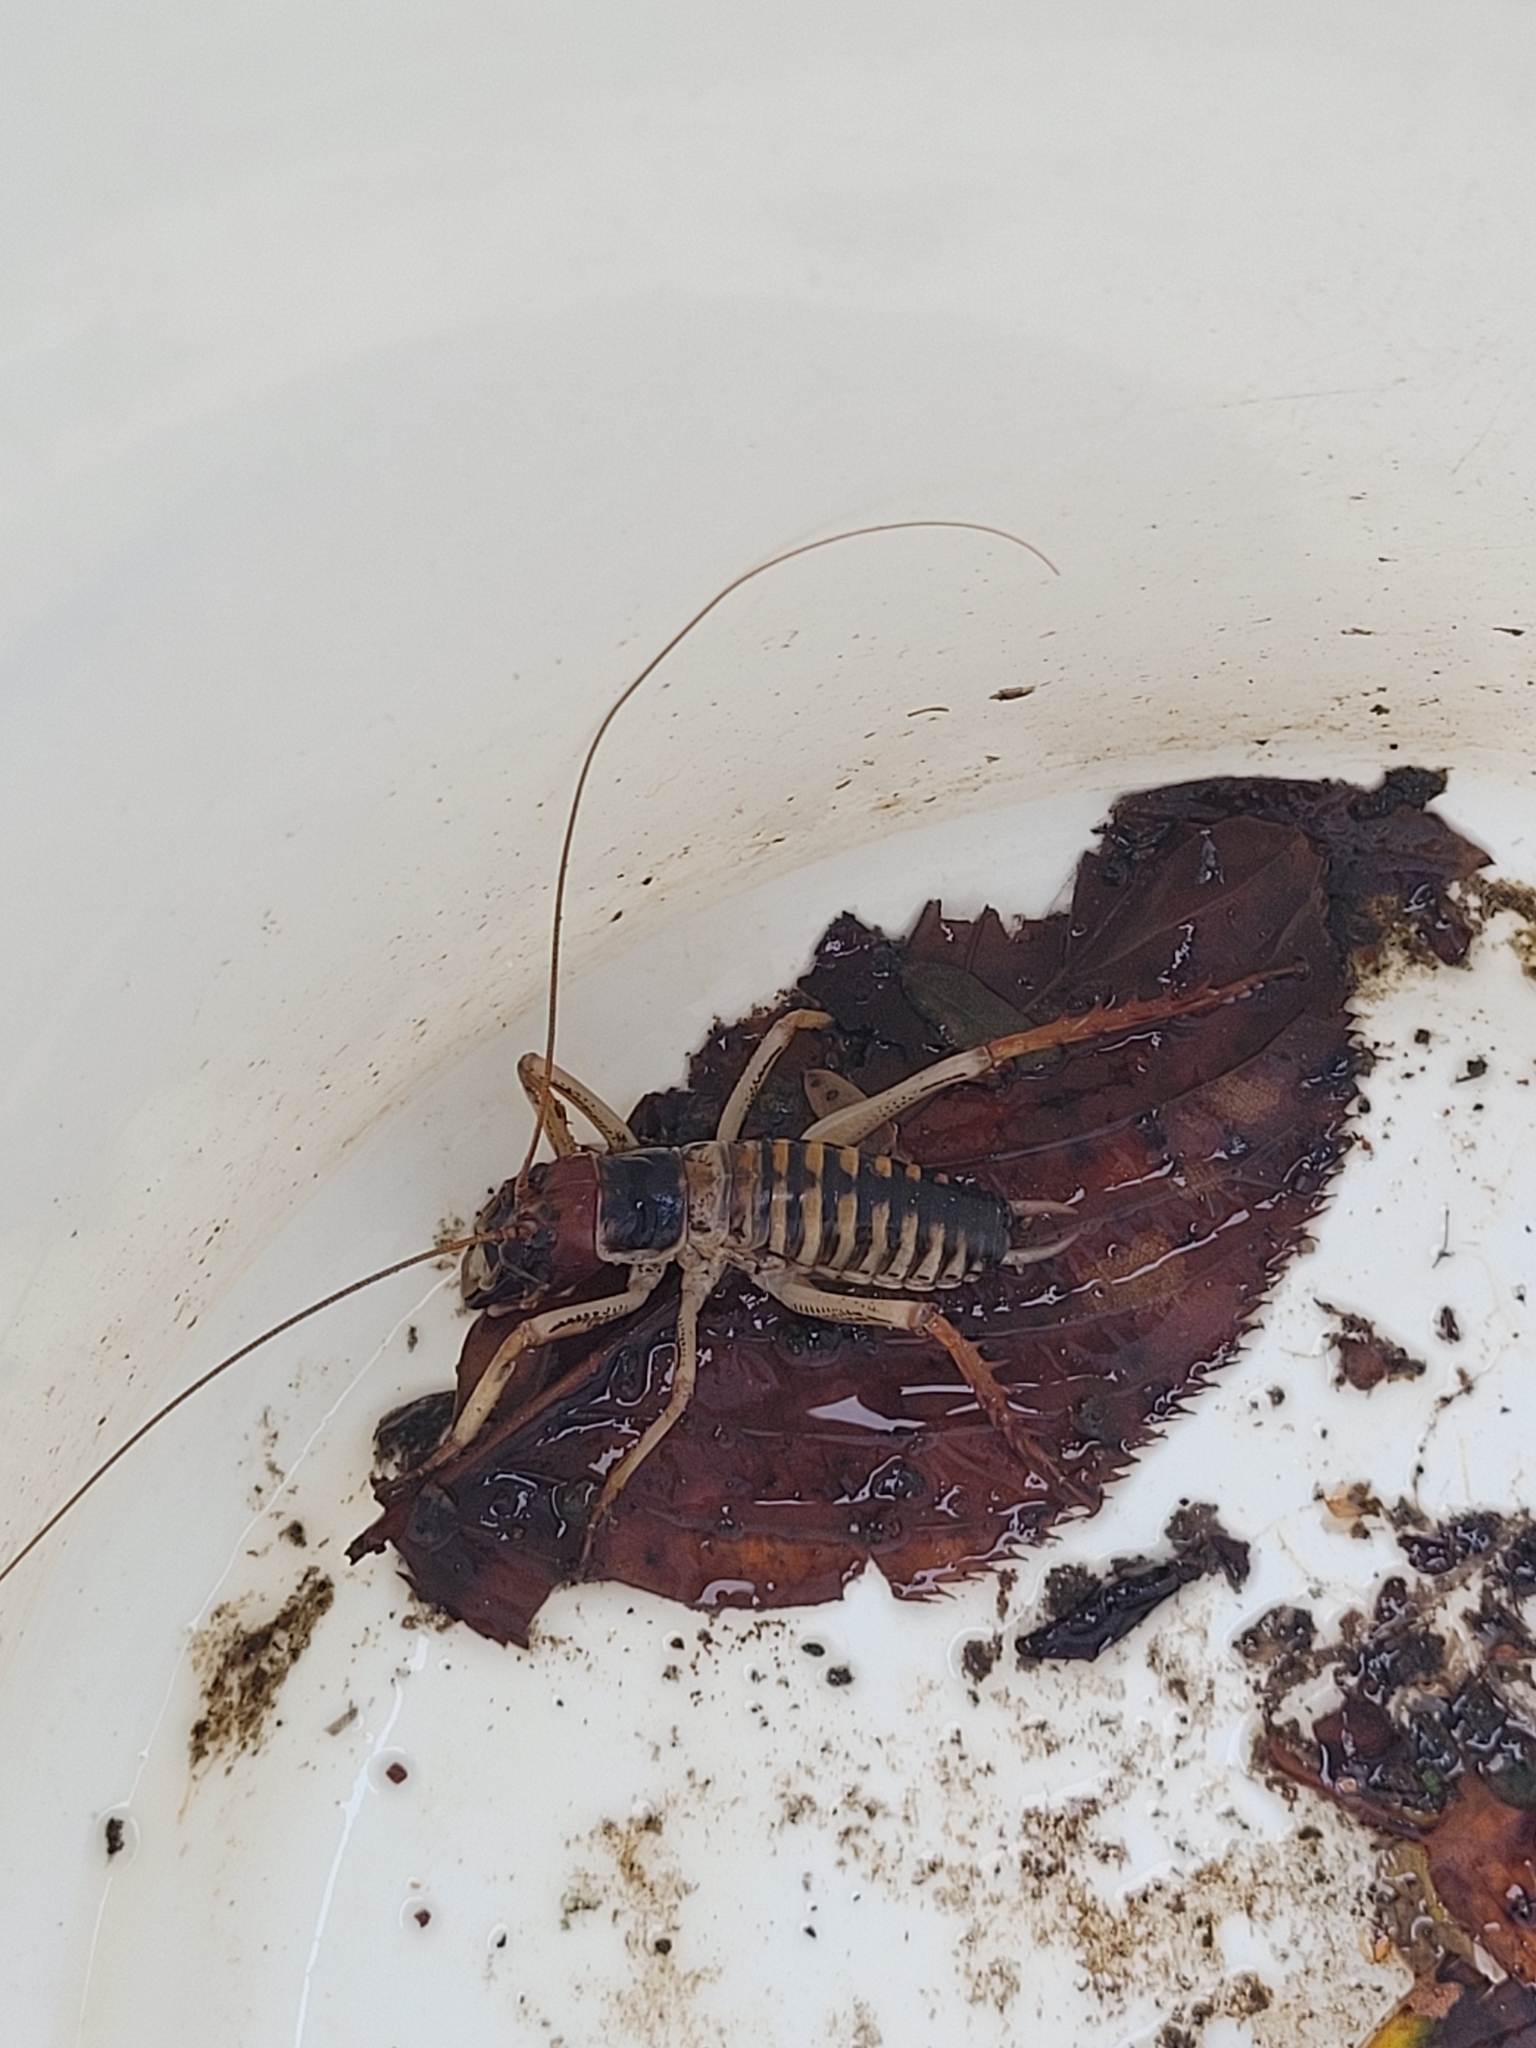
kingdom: Animalia
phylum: Arthropoda
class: Insecta
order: Orthoptera
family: Anostostomatidae
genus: Hemideina
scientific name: Hemideina crassidens
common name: Wellington tree weta
